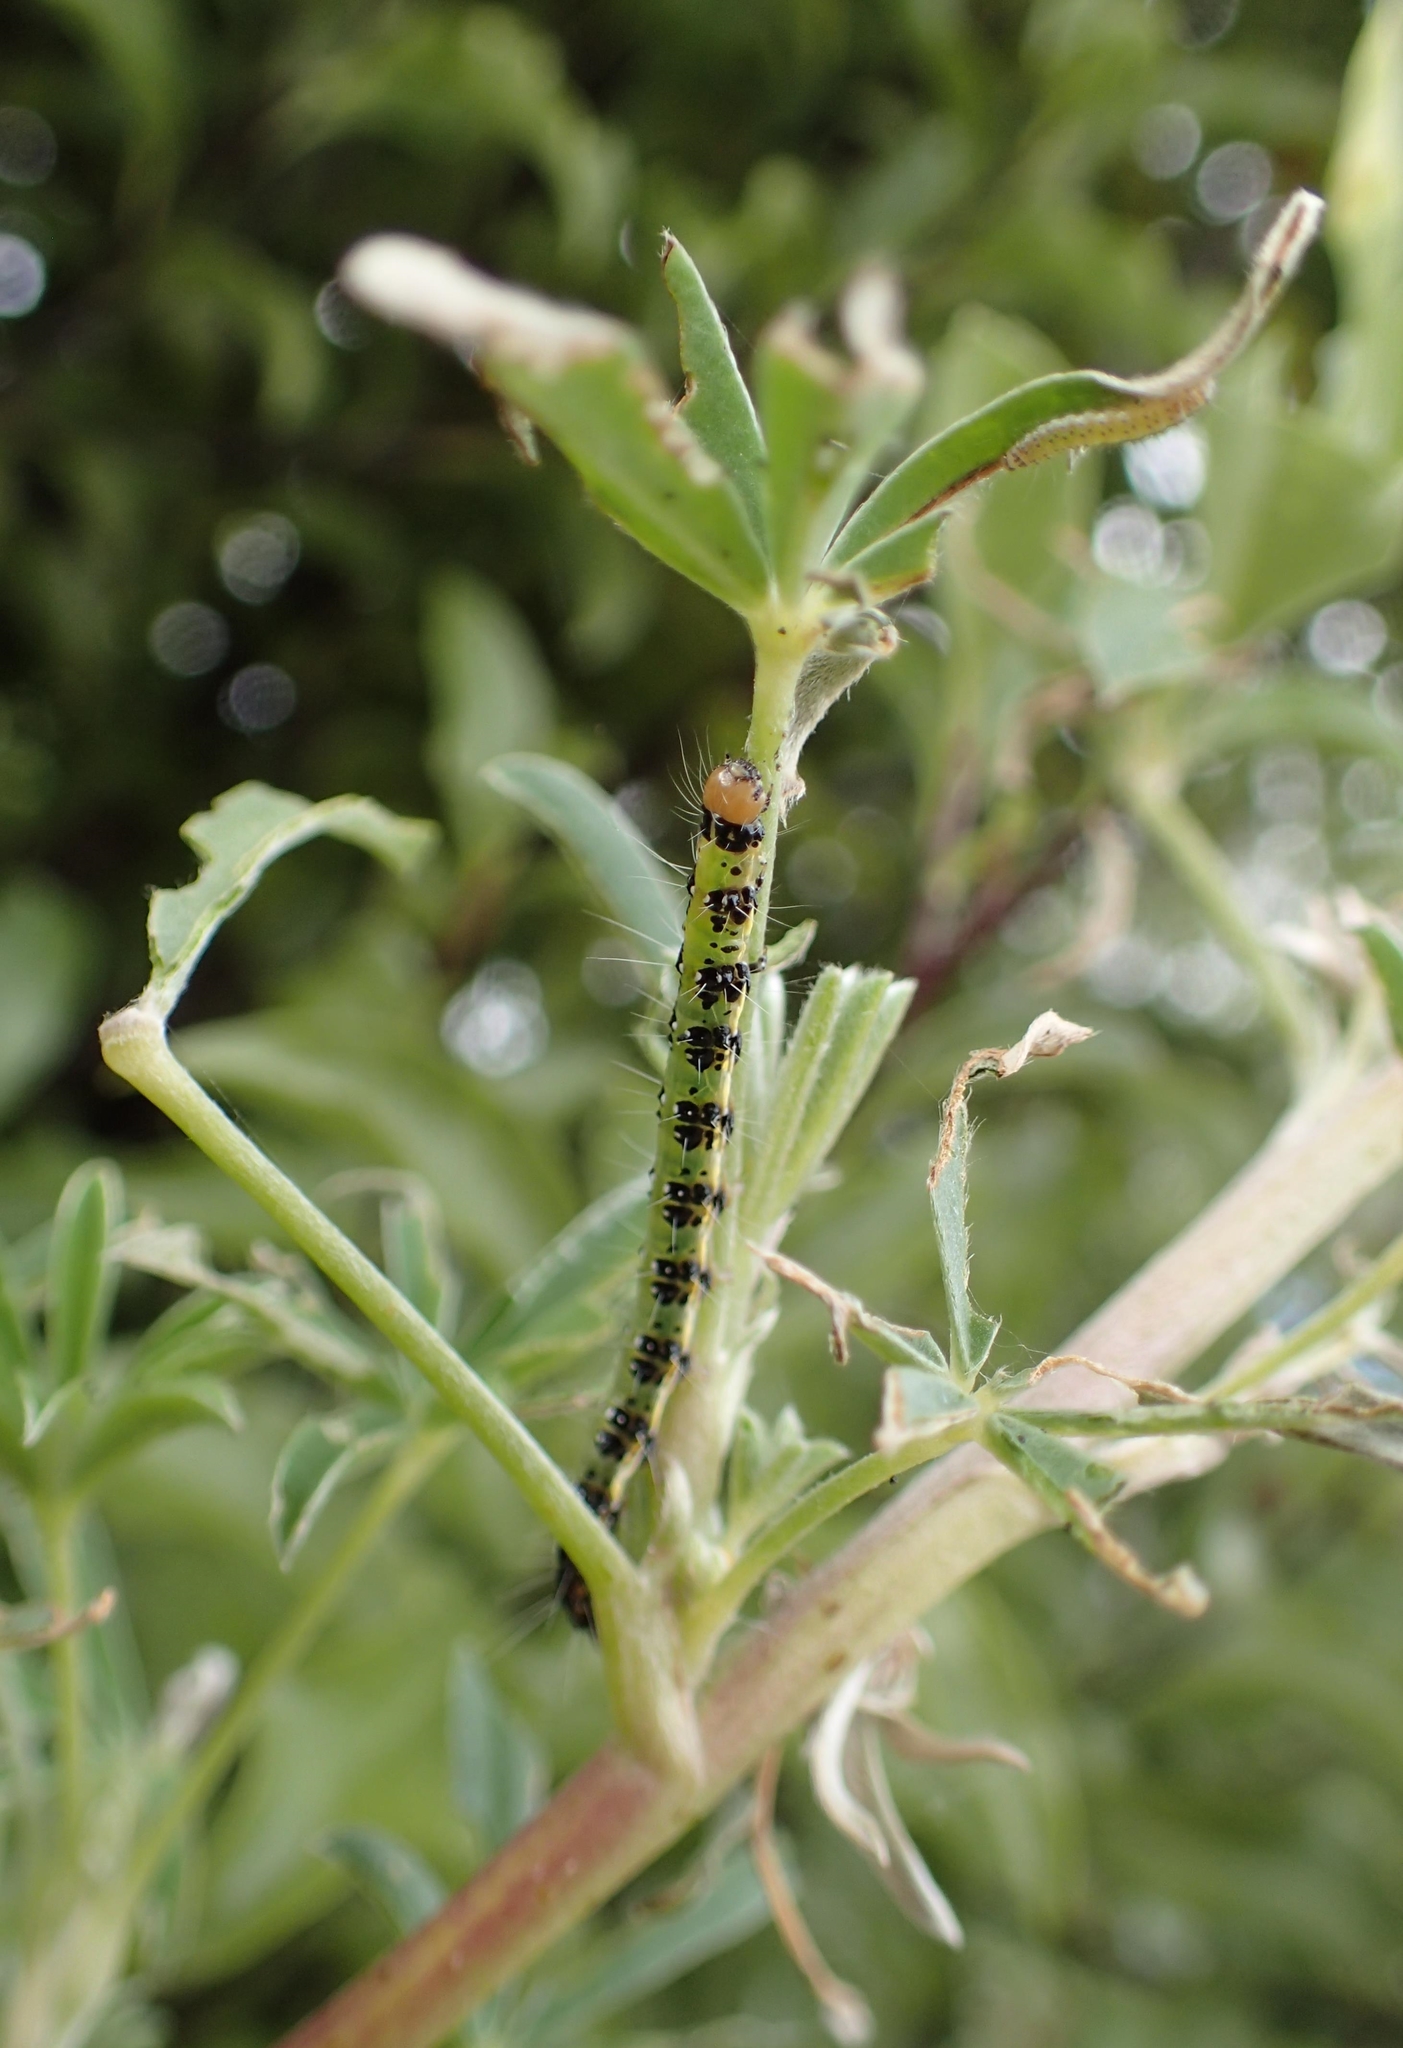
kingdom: Animalia
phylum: Arthropoda
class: Insecta
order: Lepidoptera
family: Crambidae
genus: Uresiphita
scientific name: Uresiphita
